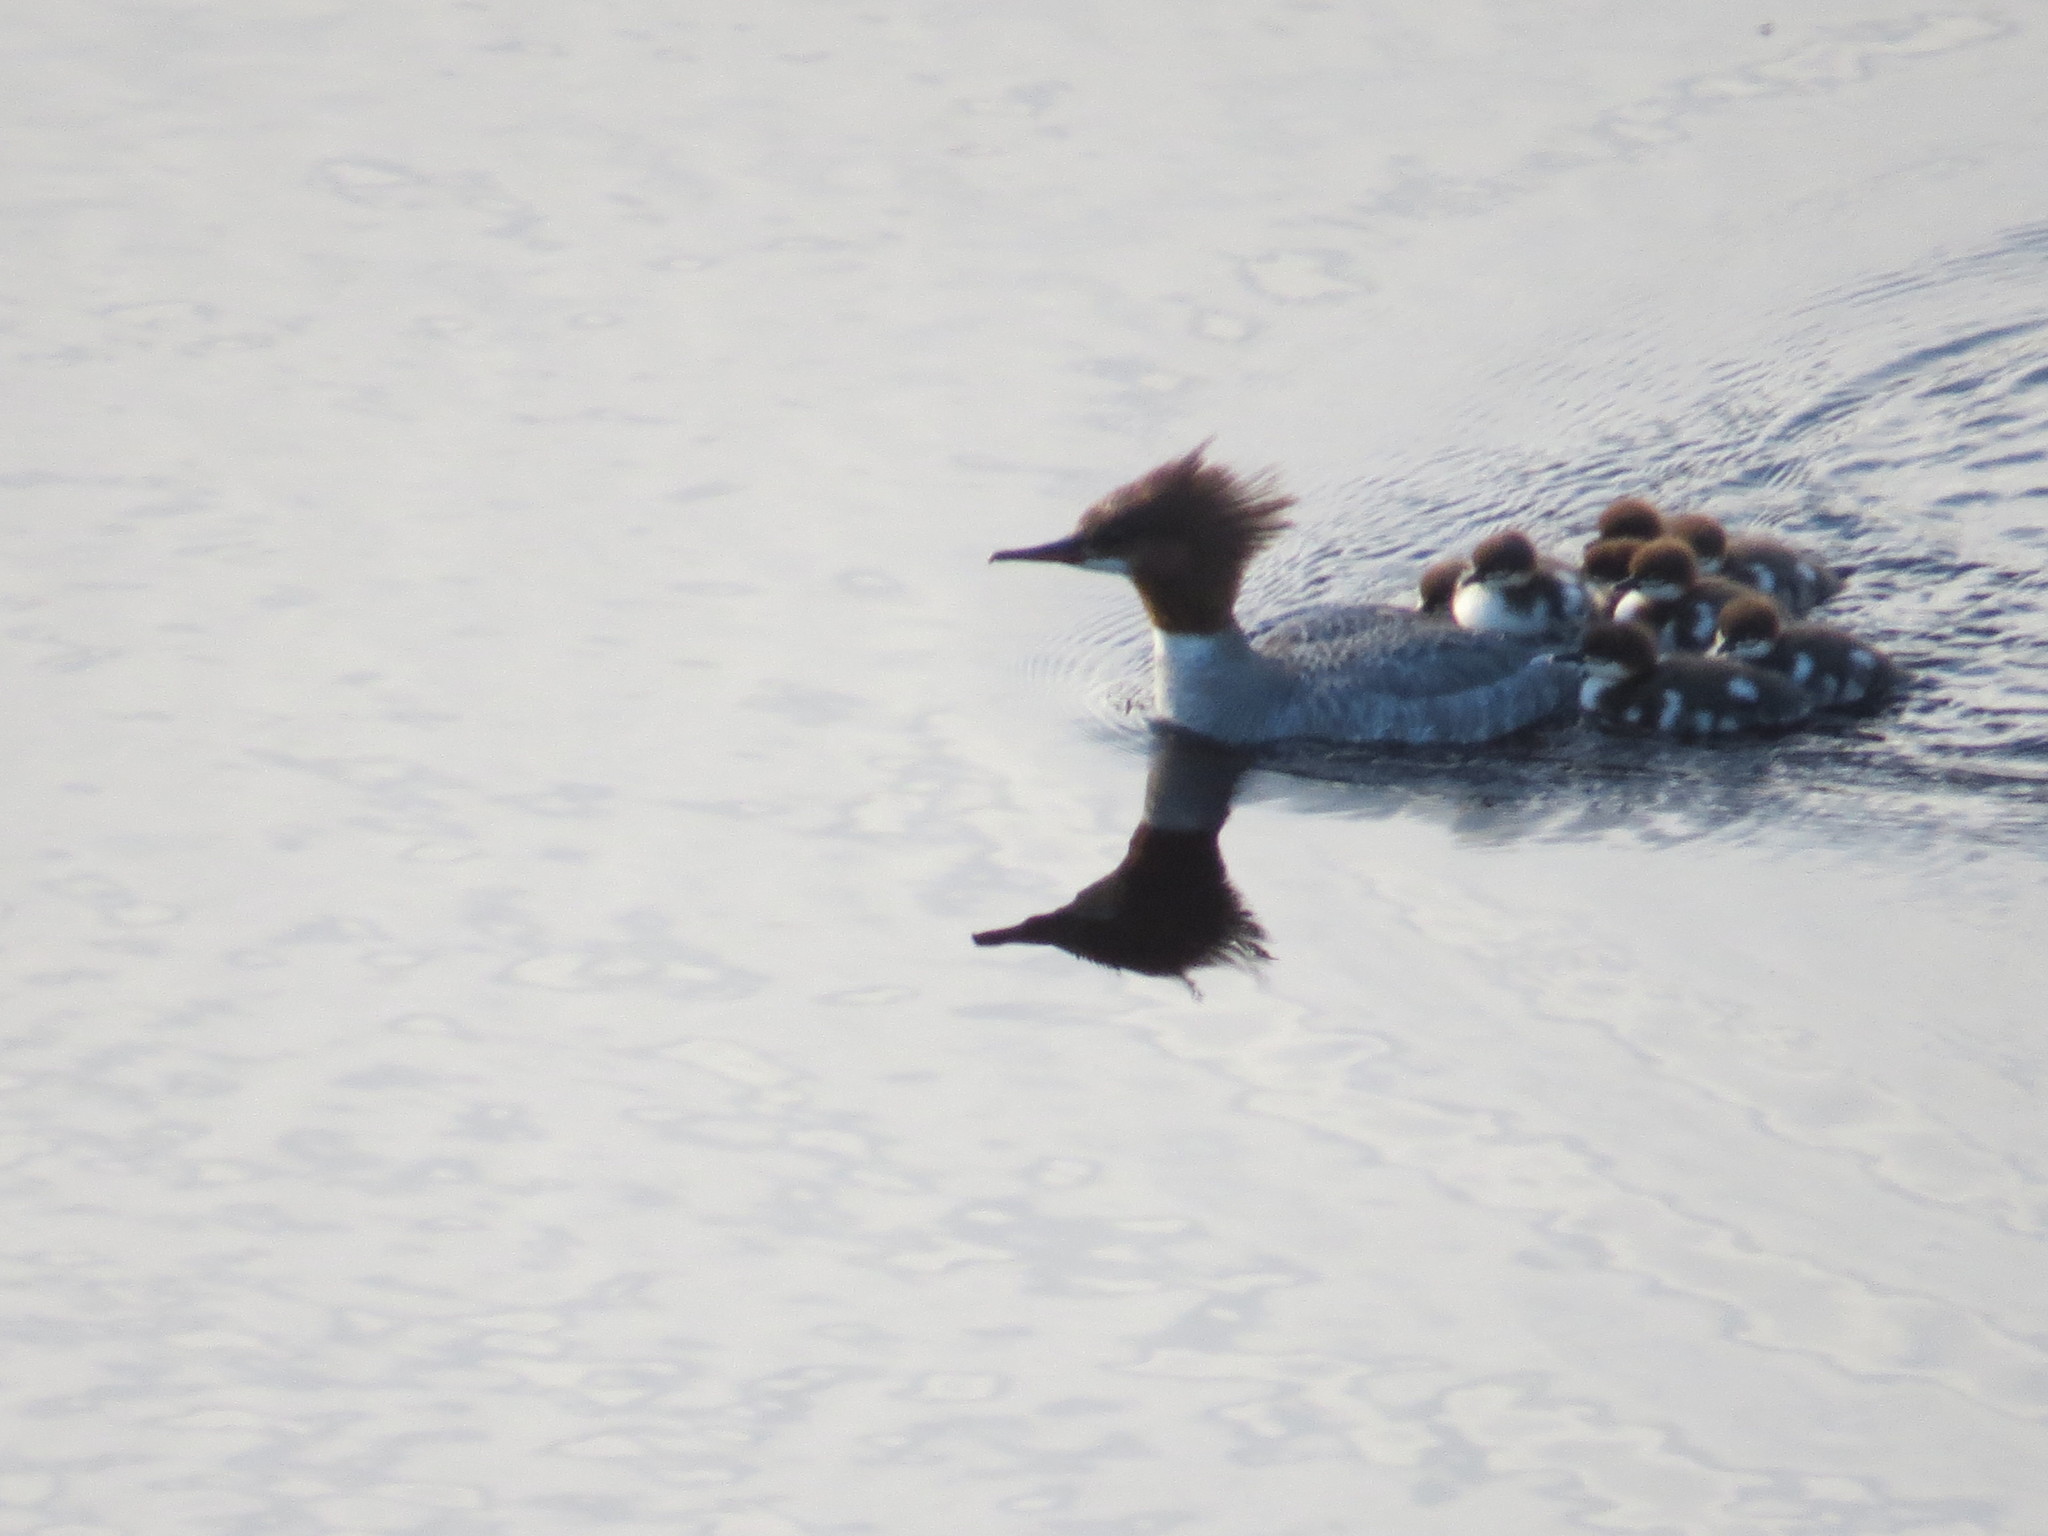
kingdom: Animalia
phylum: Chordata
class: Aves
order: Anseriformes
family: Anatidae
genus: Mergus
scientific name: Mergus merganser
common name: Common merganser
